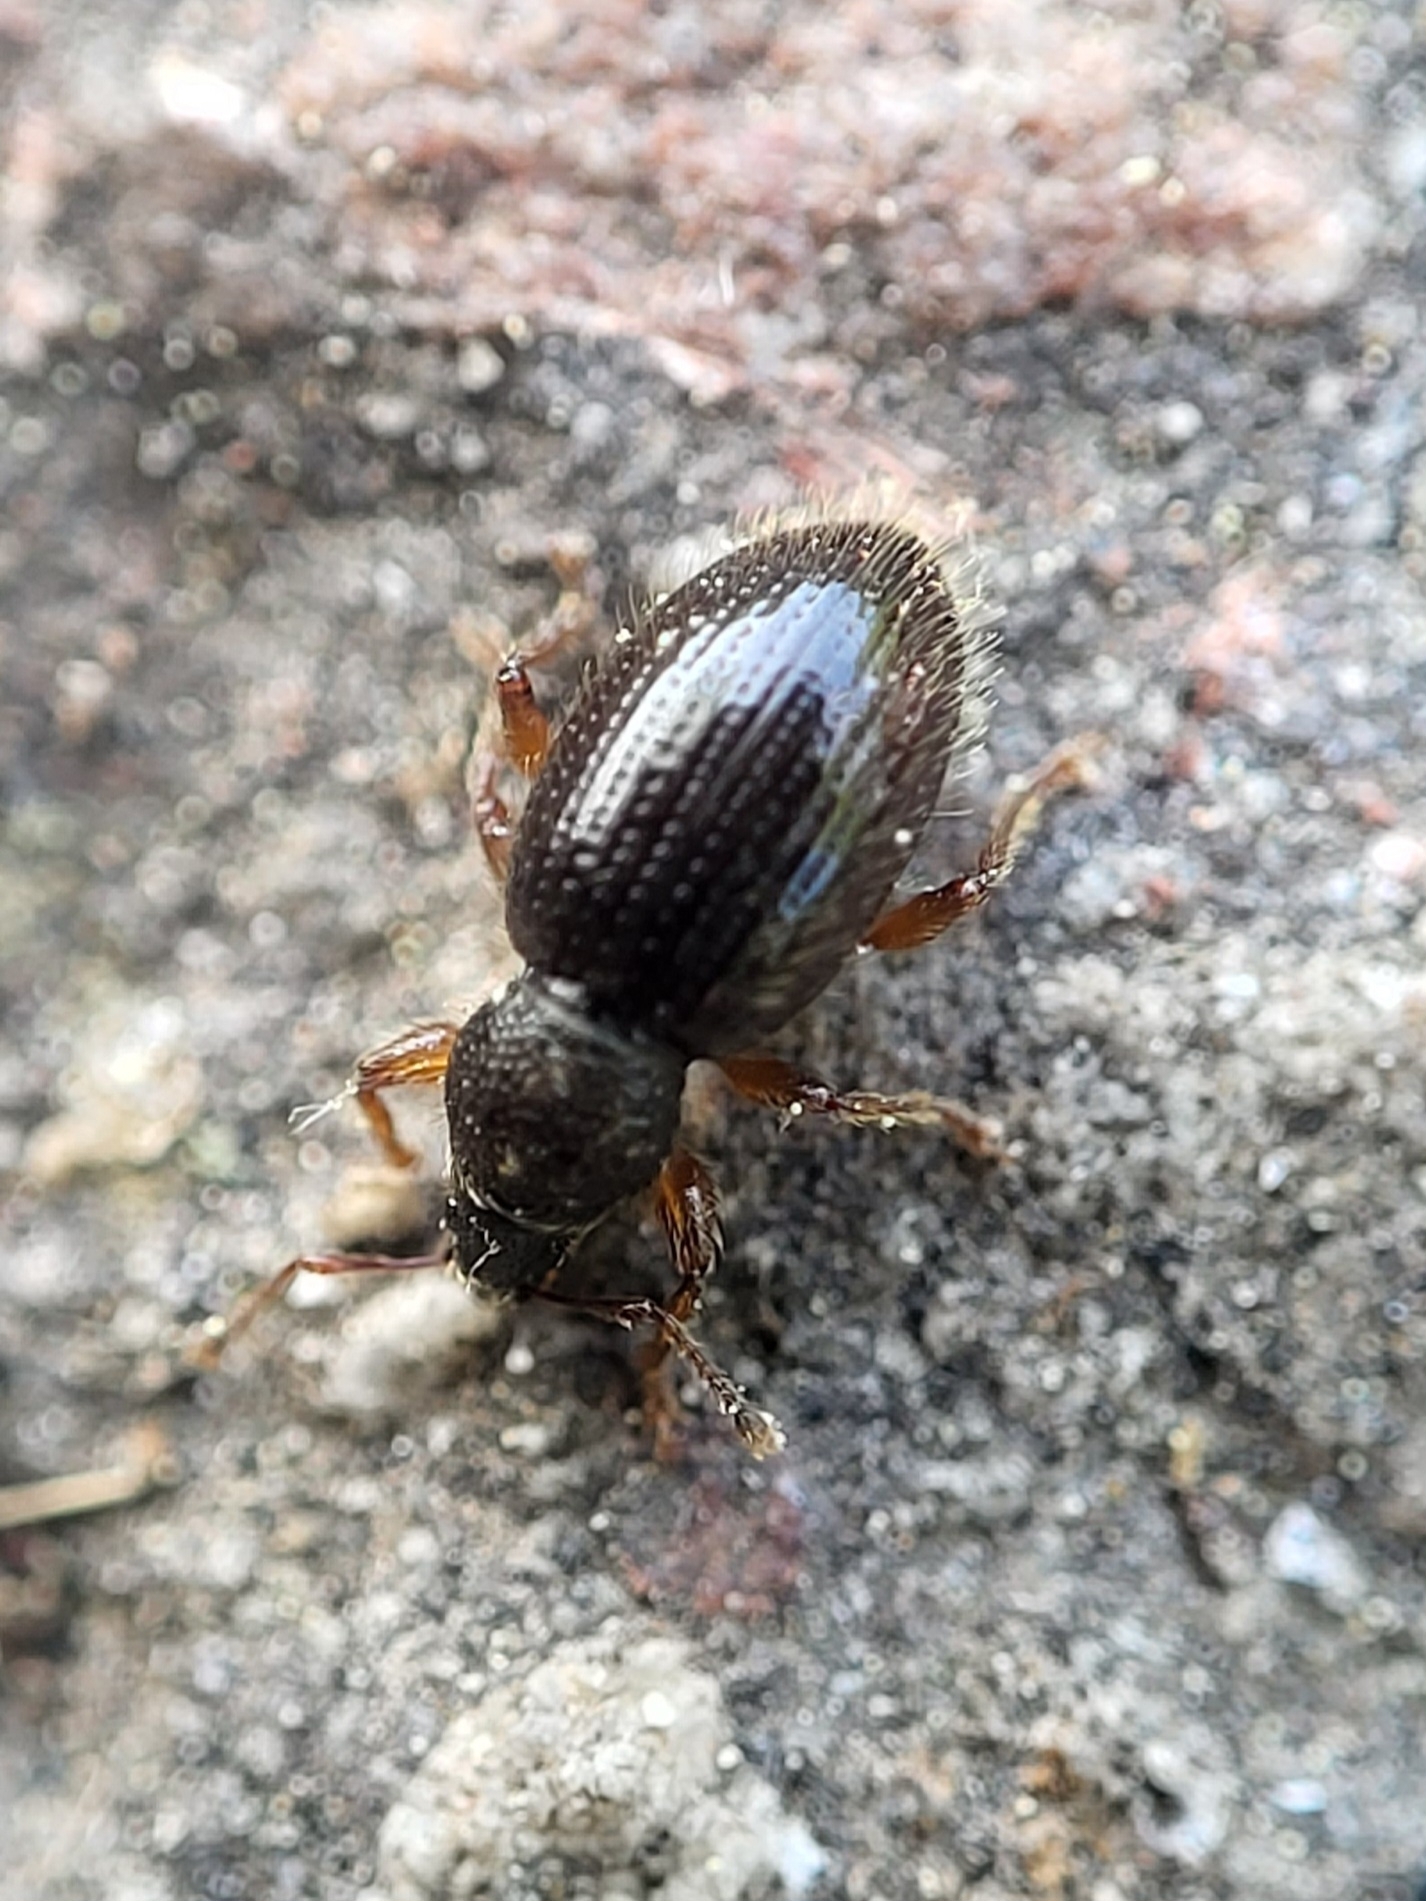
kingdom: Animalia
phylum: Arthropoda
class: Insecta
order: Coleoptera
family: Curculionidae
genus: Exomias
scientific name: Exomias pellucidus
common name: Hairy spider weevil
